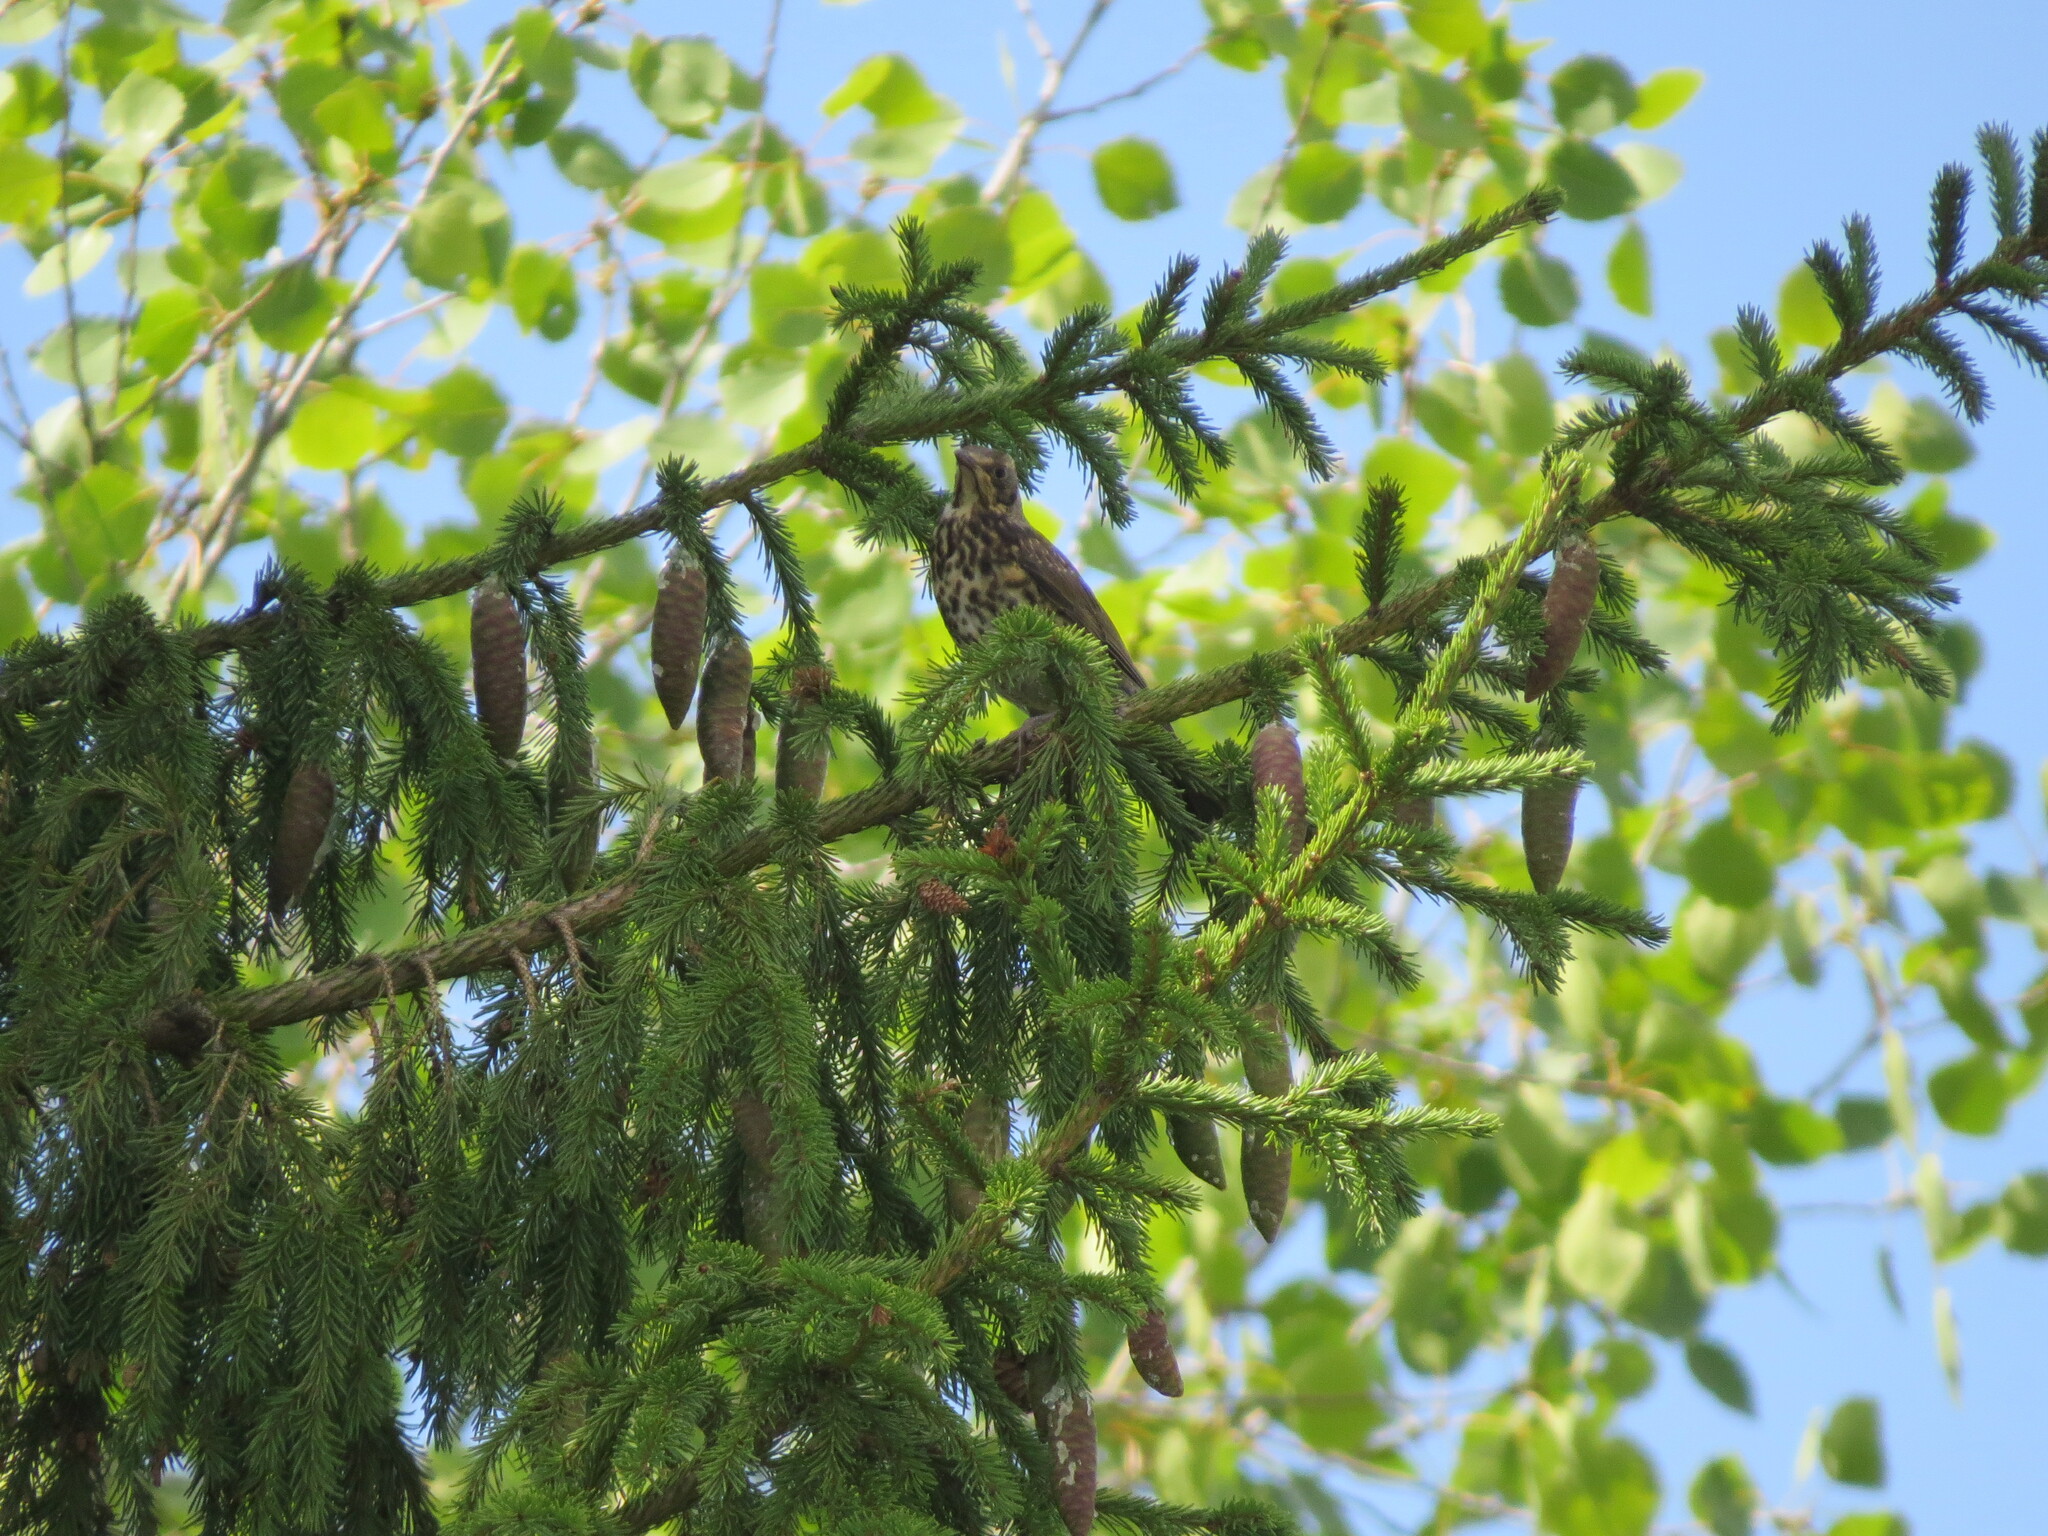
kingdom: Animalia
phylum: Chordata
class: Aves
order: Passeriformes
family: Turdidae
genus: Turdus
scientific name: Turdus pilaris
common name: Fieldfare
